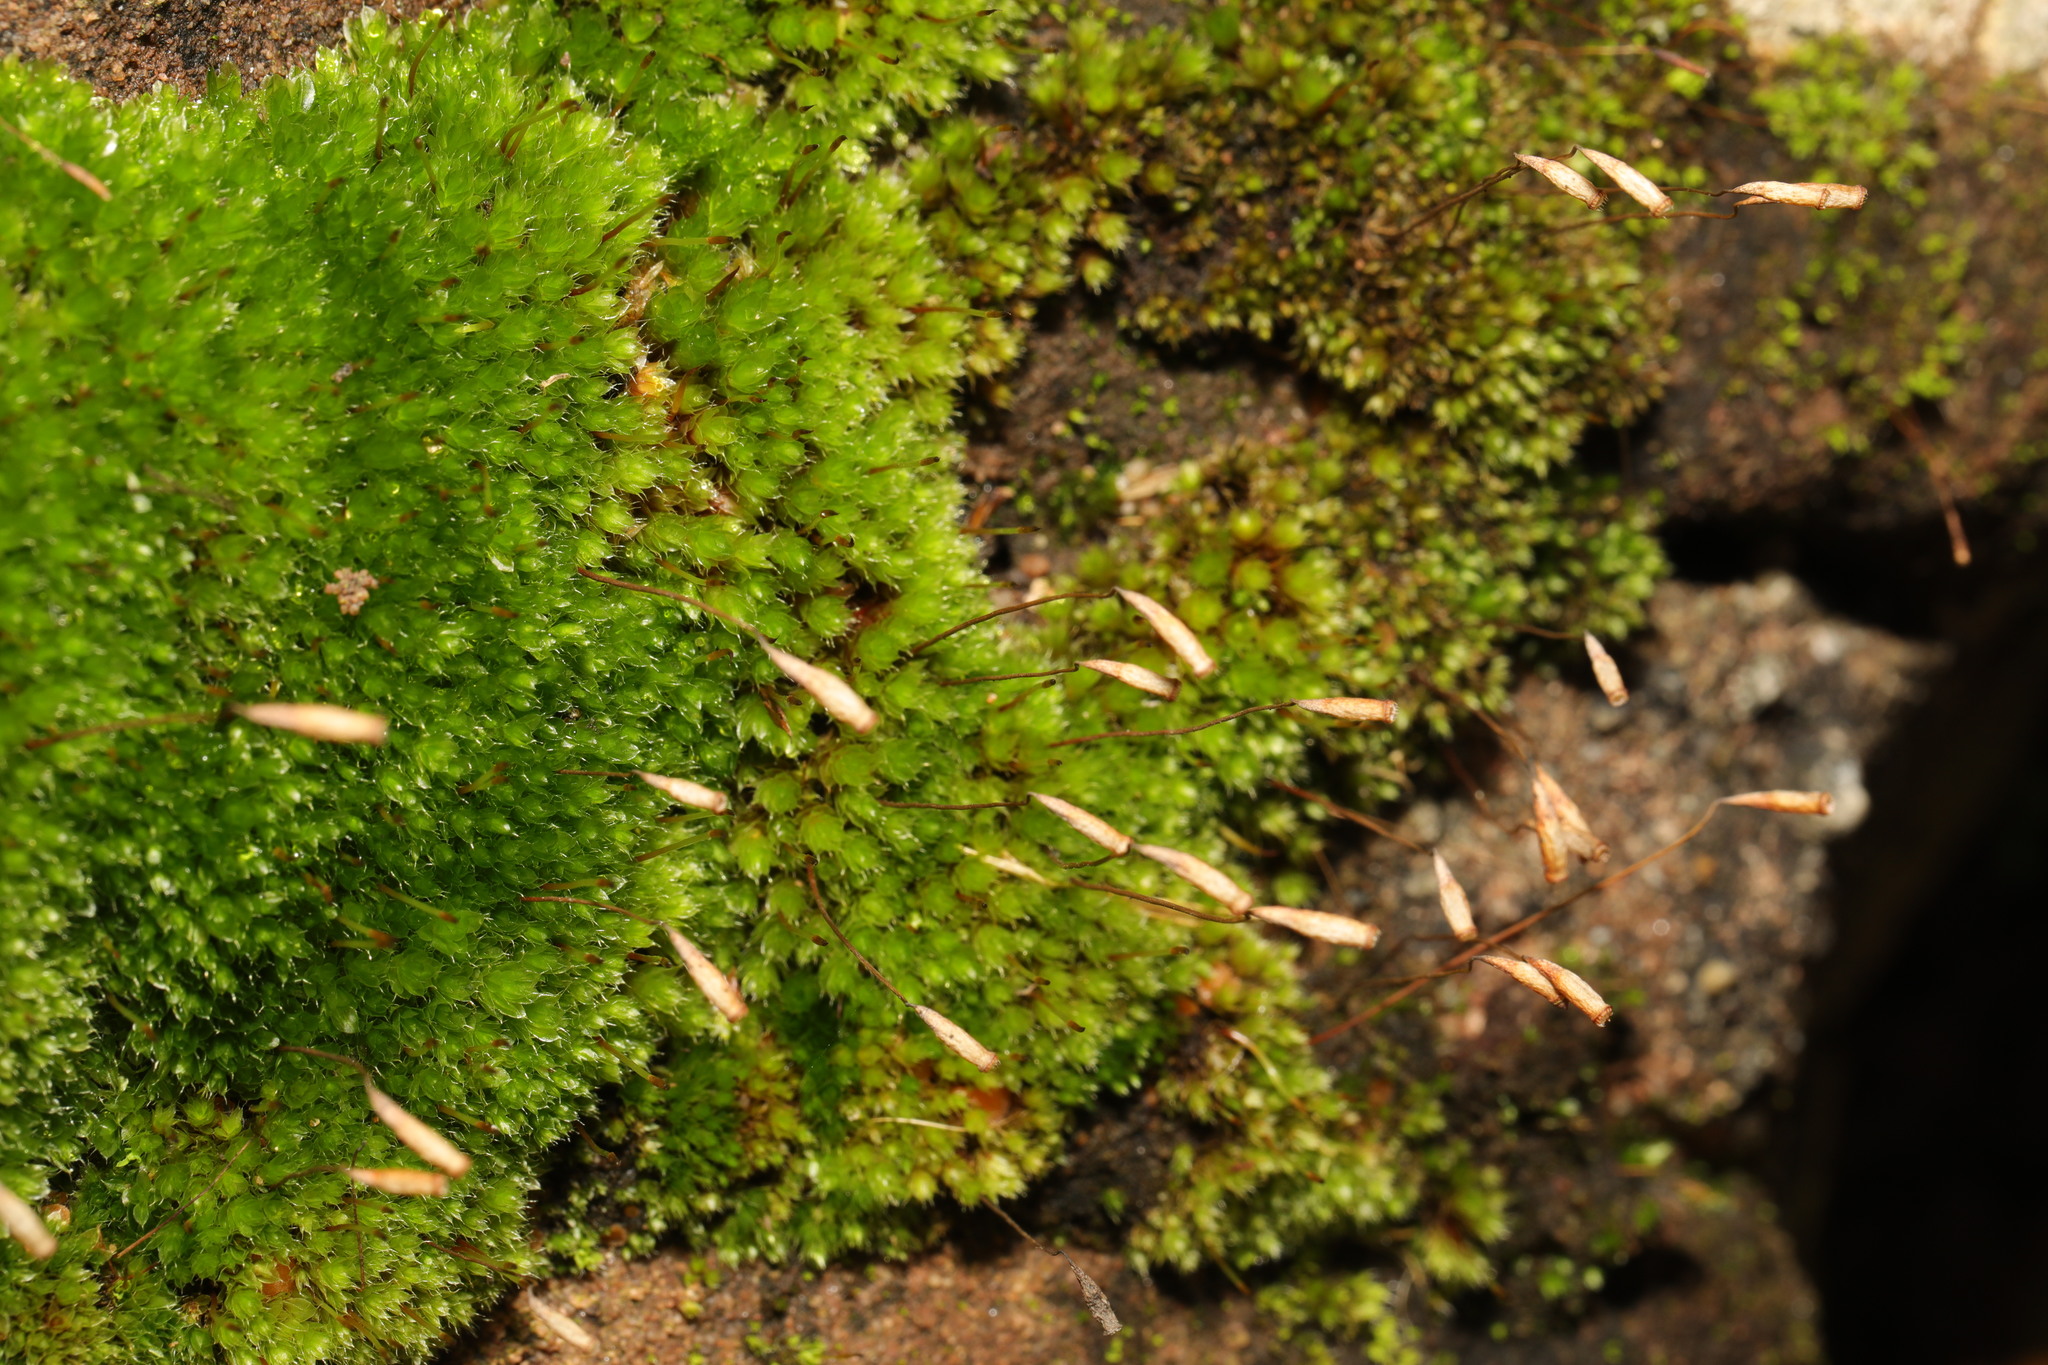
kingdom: Plantae
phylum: Bryophyta
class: Bryopsida
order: Bryales
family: Bryaceae
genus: Rosulabryum
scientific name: Rosulabryum capillare
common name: Capillary thread-moss
